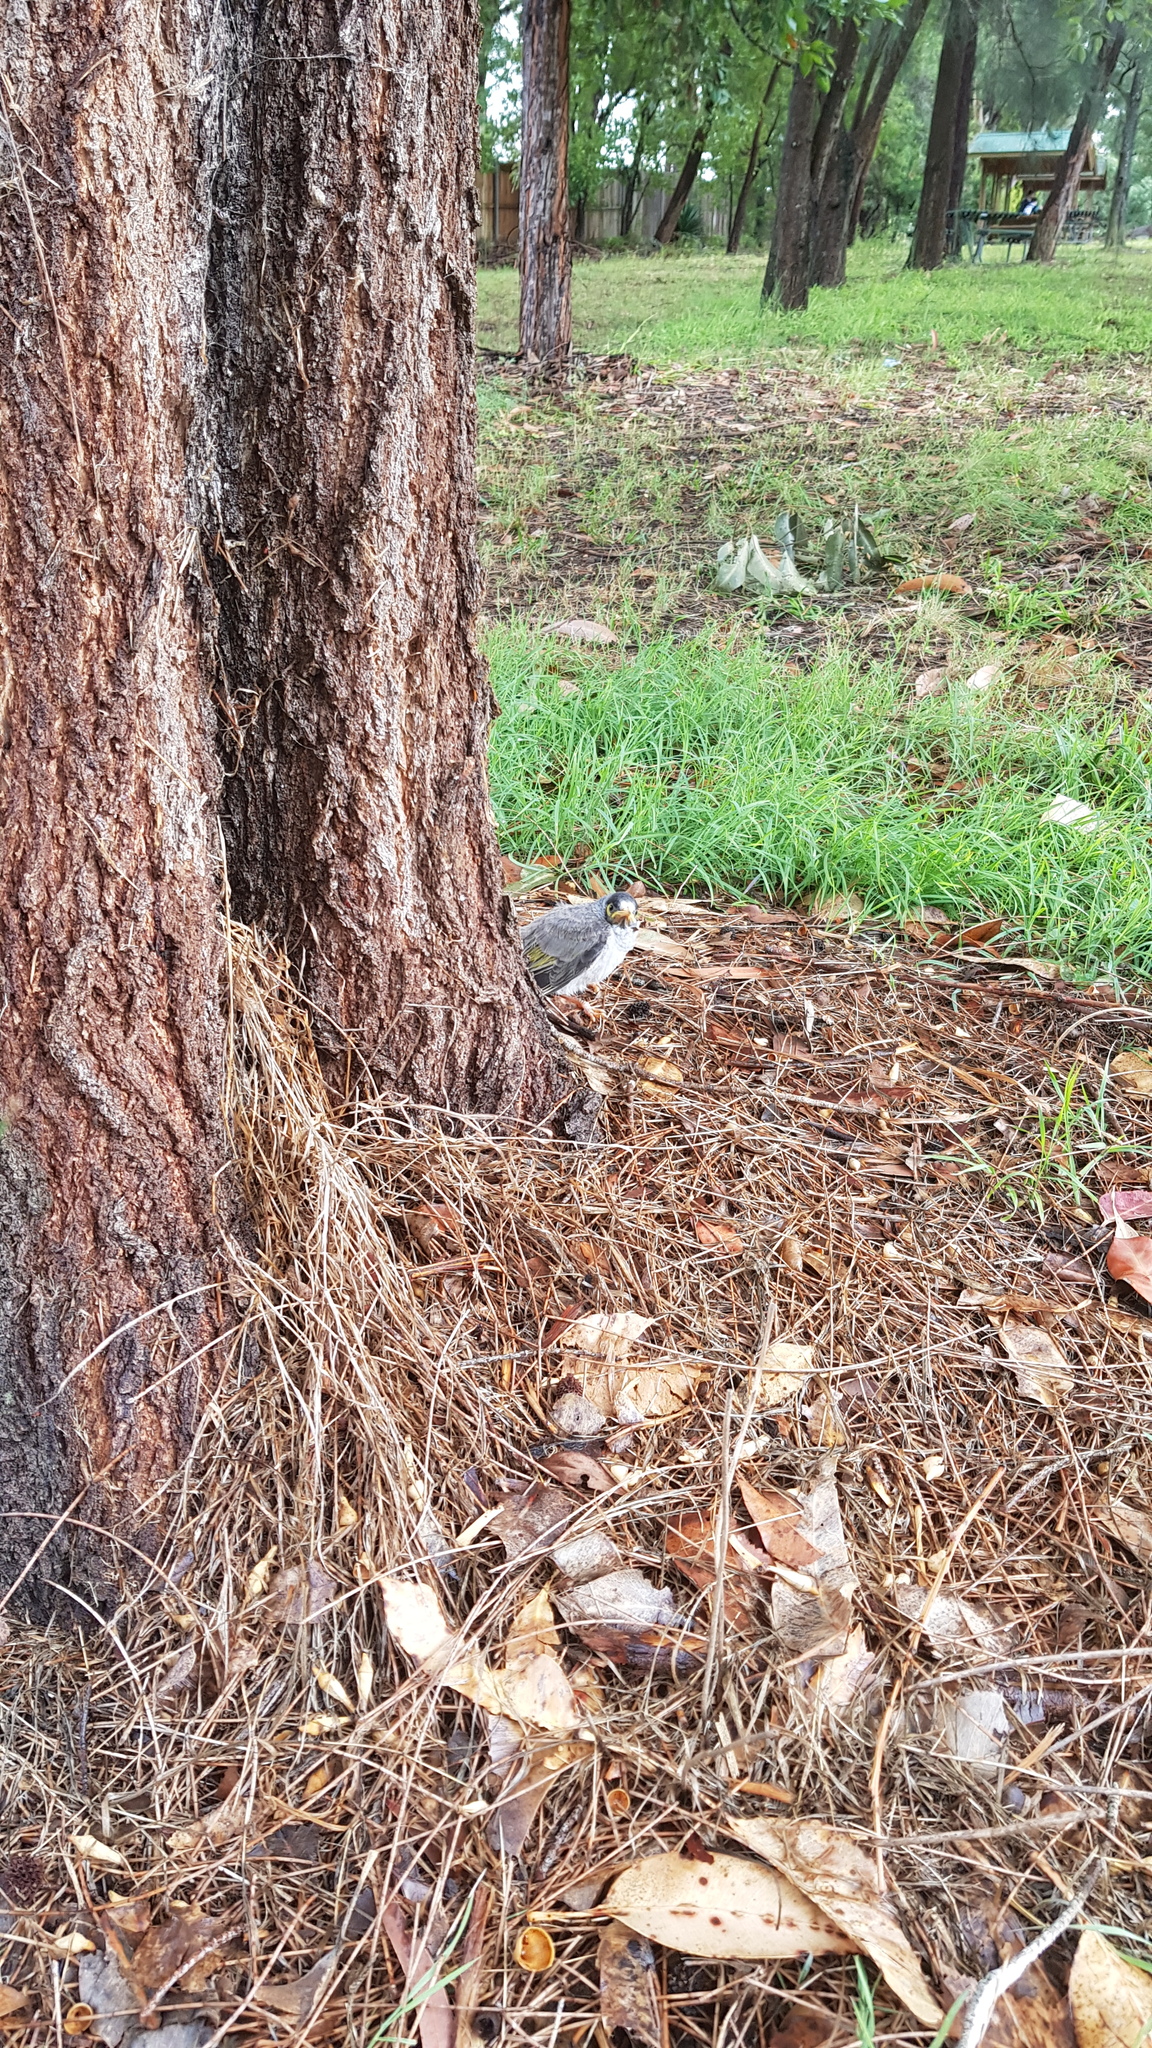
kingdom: Animalia
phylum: Chordata
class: Aves
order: Passeriformes
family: Meliphagidae
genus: Manorina
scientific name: Manorina melanocephala
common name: Noisy miner
